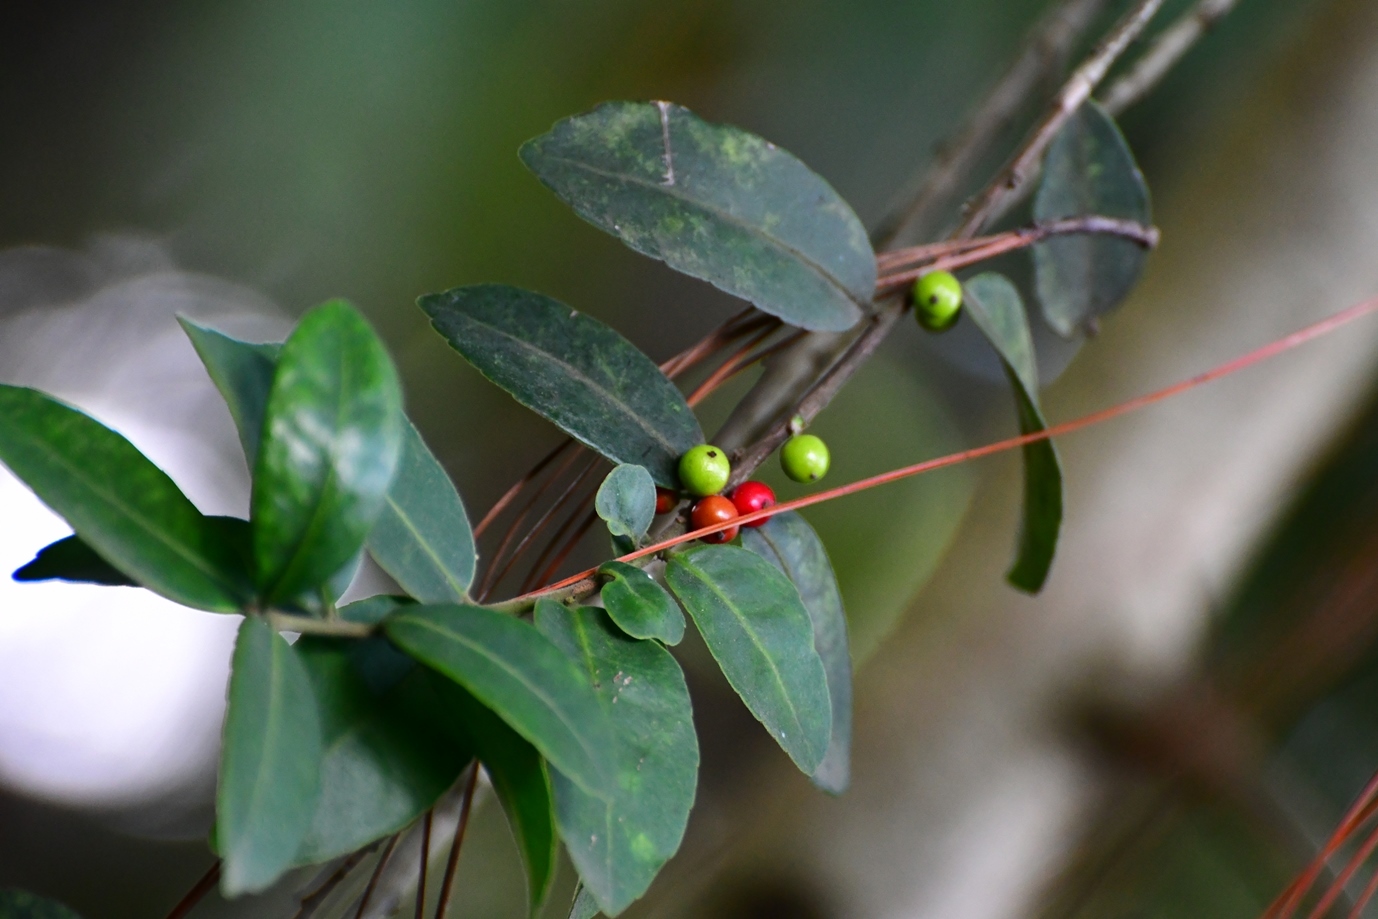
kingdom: Plantae
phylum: Tracheophyta
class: Magnoliopsida
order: Aquifoliales
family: Aquifoliaceae
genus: Ilex
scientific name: Ilex vomitoria
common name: Yaupon holly
